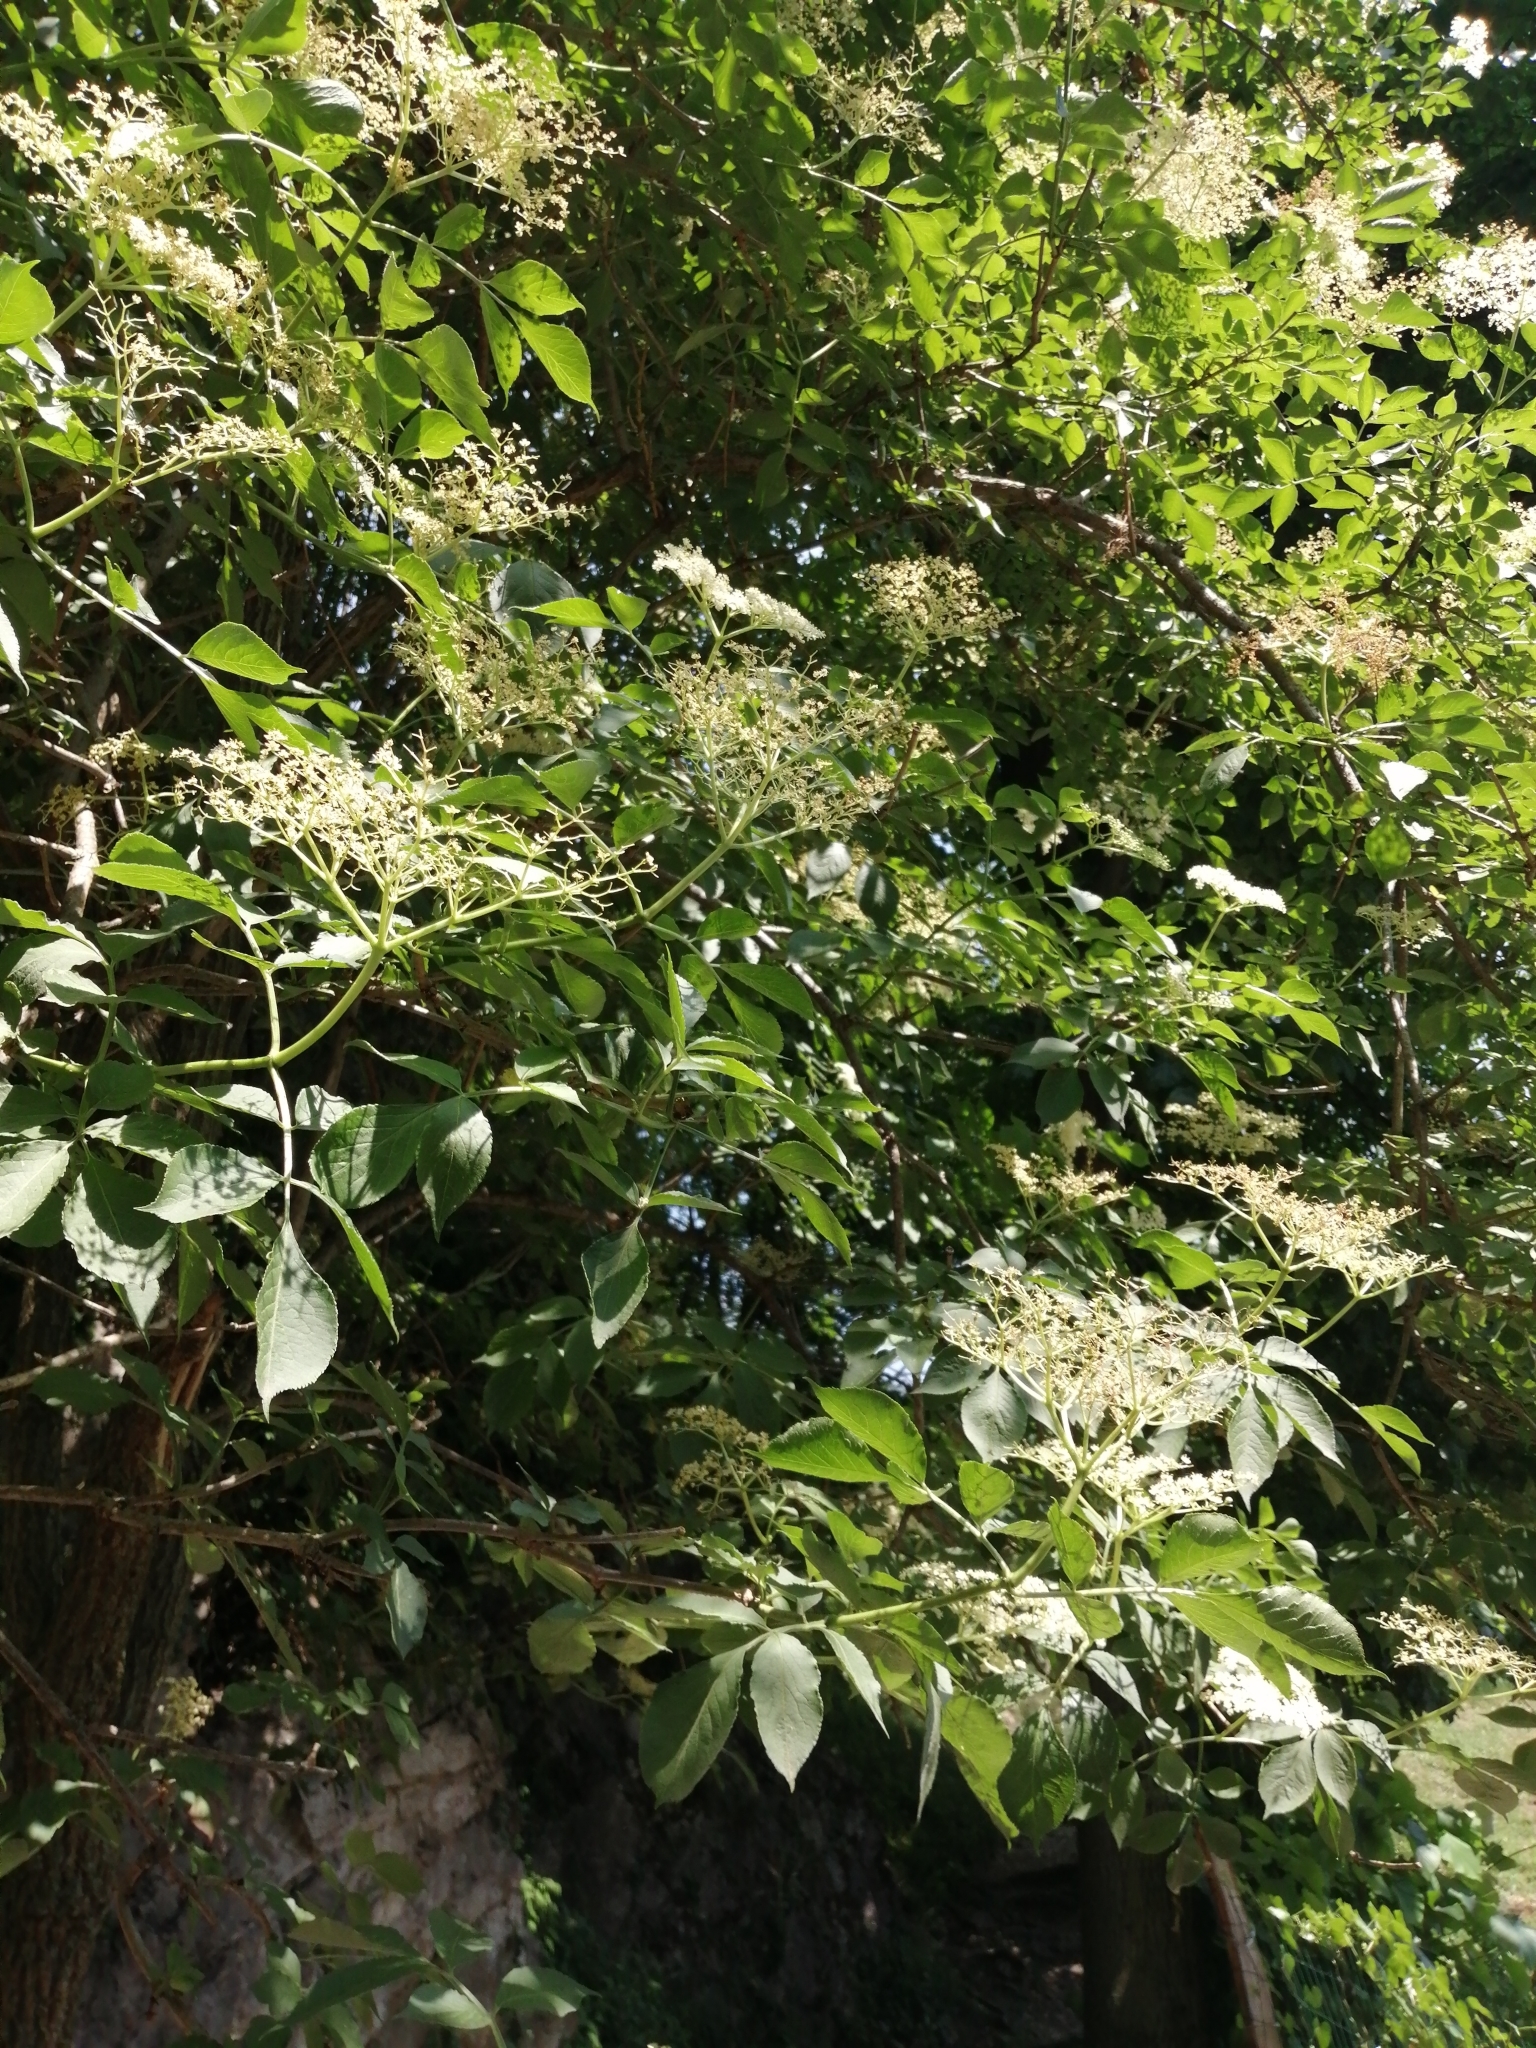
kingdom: Plantae
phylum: Tracheophyta
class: Magnoliopsida
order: Dipsacales
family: Viburnaceae
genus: Sambucus
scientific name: Sambucus nigra
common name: Elder
